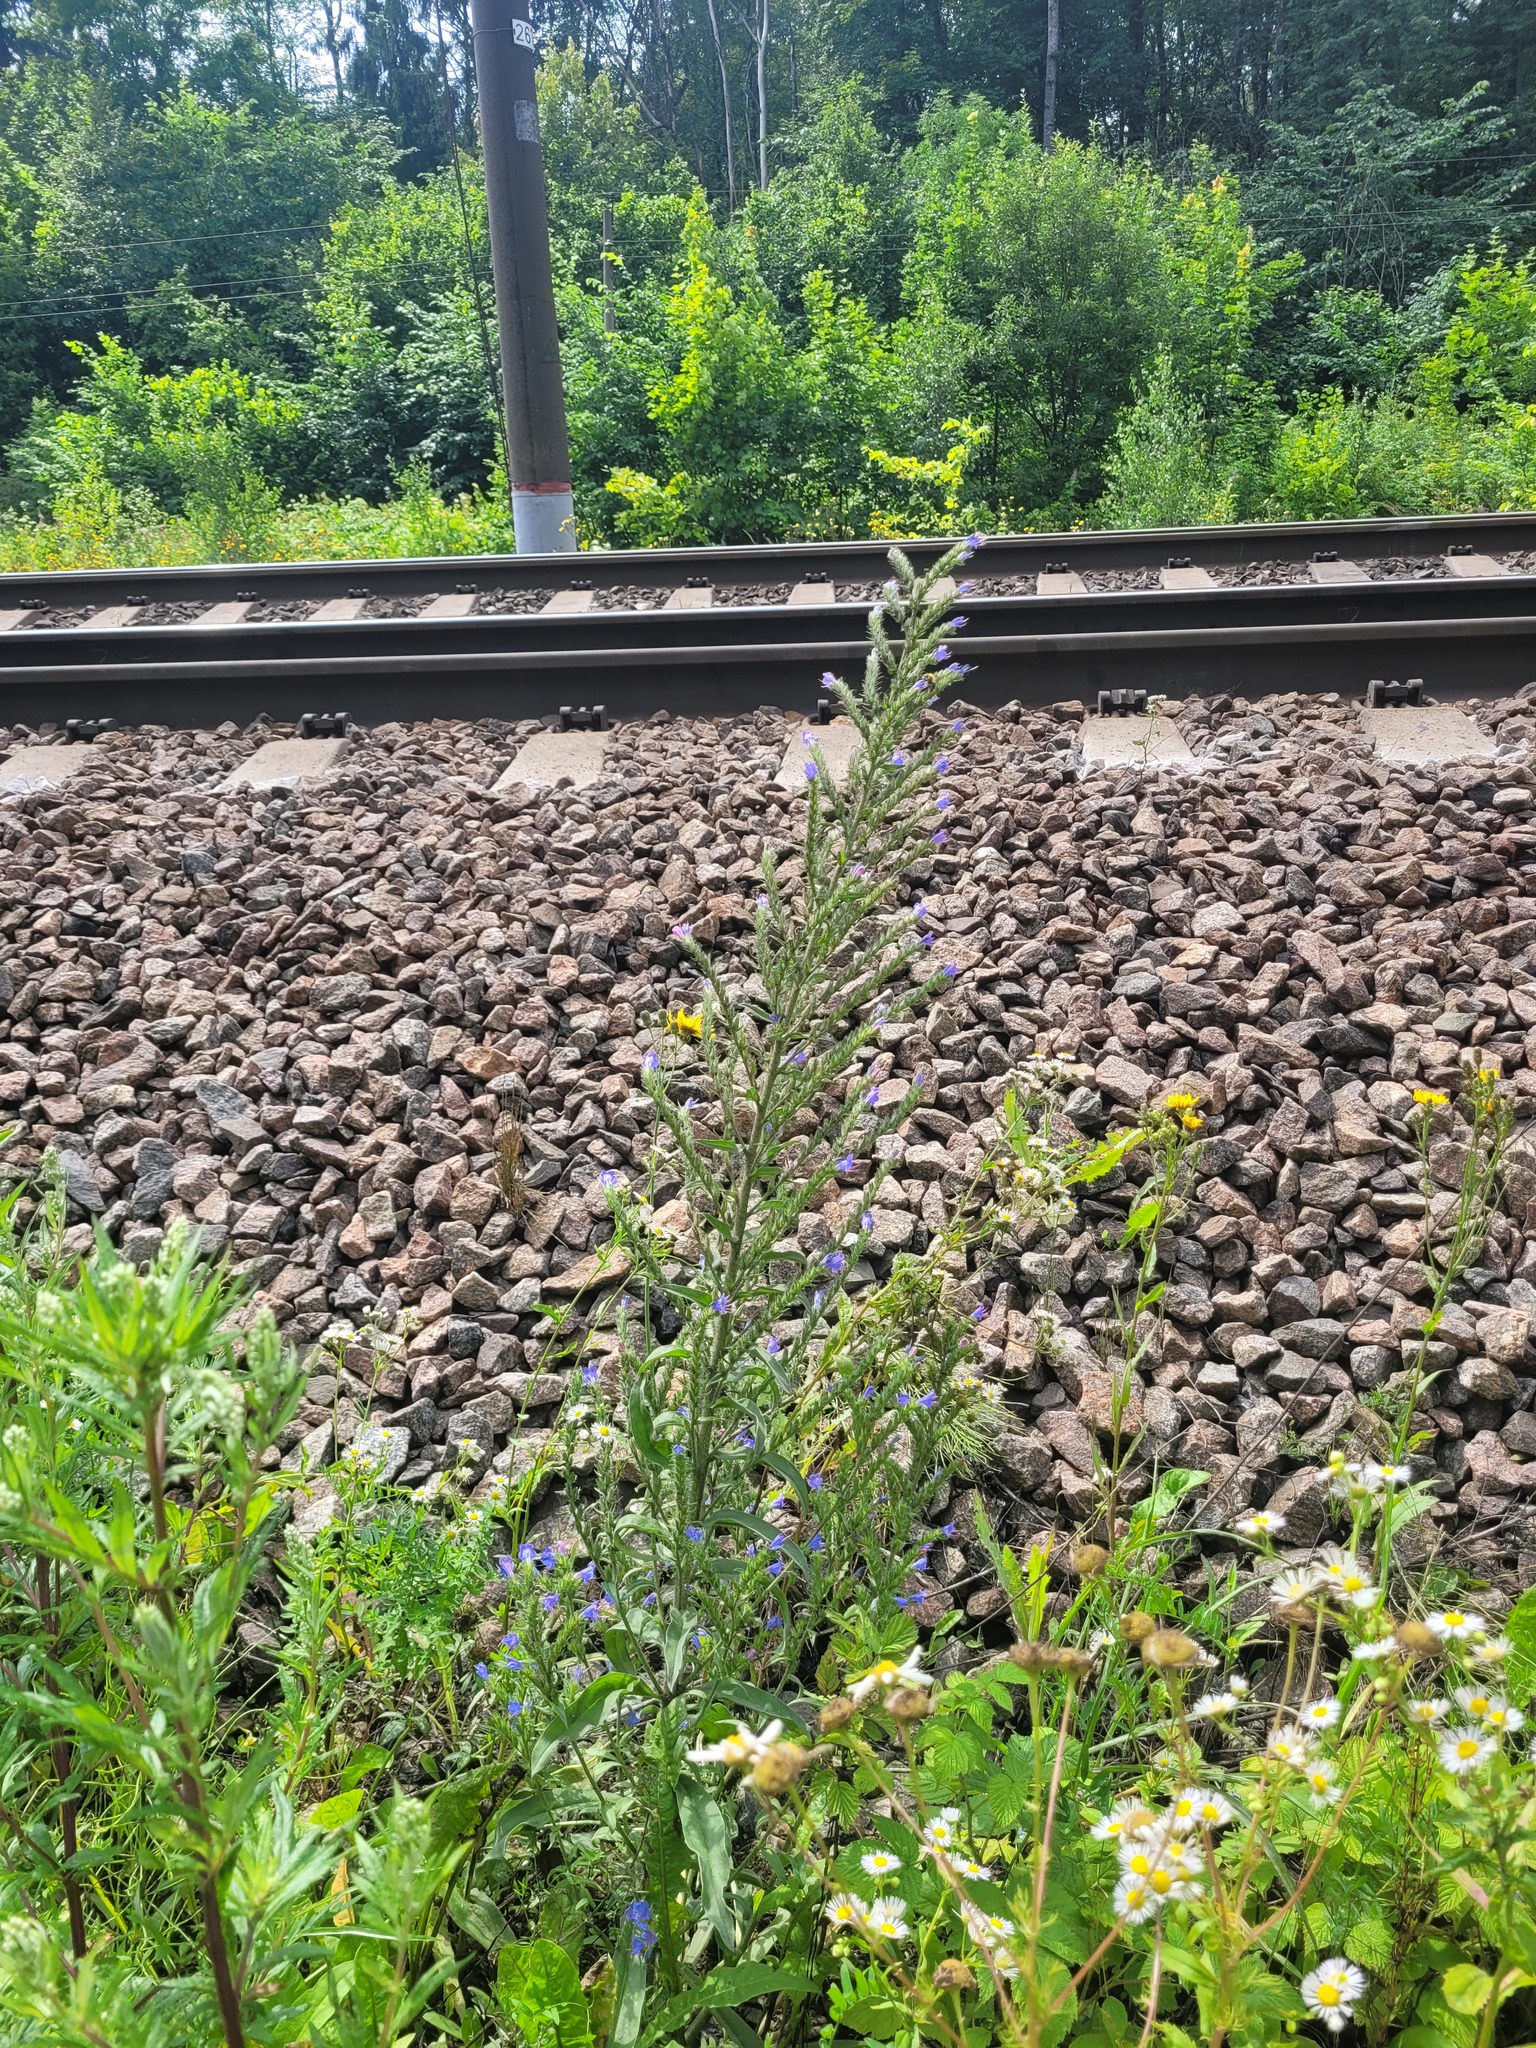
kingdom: Plantae
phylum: Tracheophyta
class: Magnoliopsida
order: Boraginales
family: Boraginaceae
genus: Echium
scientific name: Echium vulgare
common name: Common viper's bugloss
